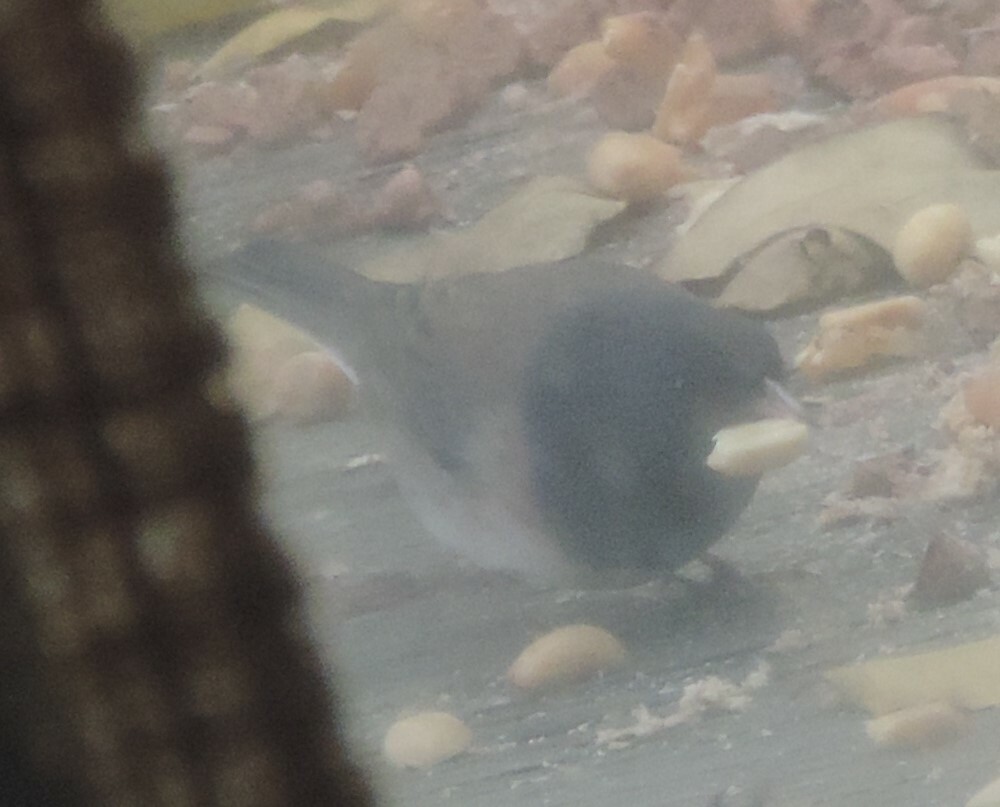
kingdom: Animalia
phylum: Chordata
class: Aves
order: Passeriformes
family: Passerellidae
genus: Junco
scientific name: Junco hyemalis
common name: Dark-eyed junco
